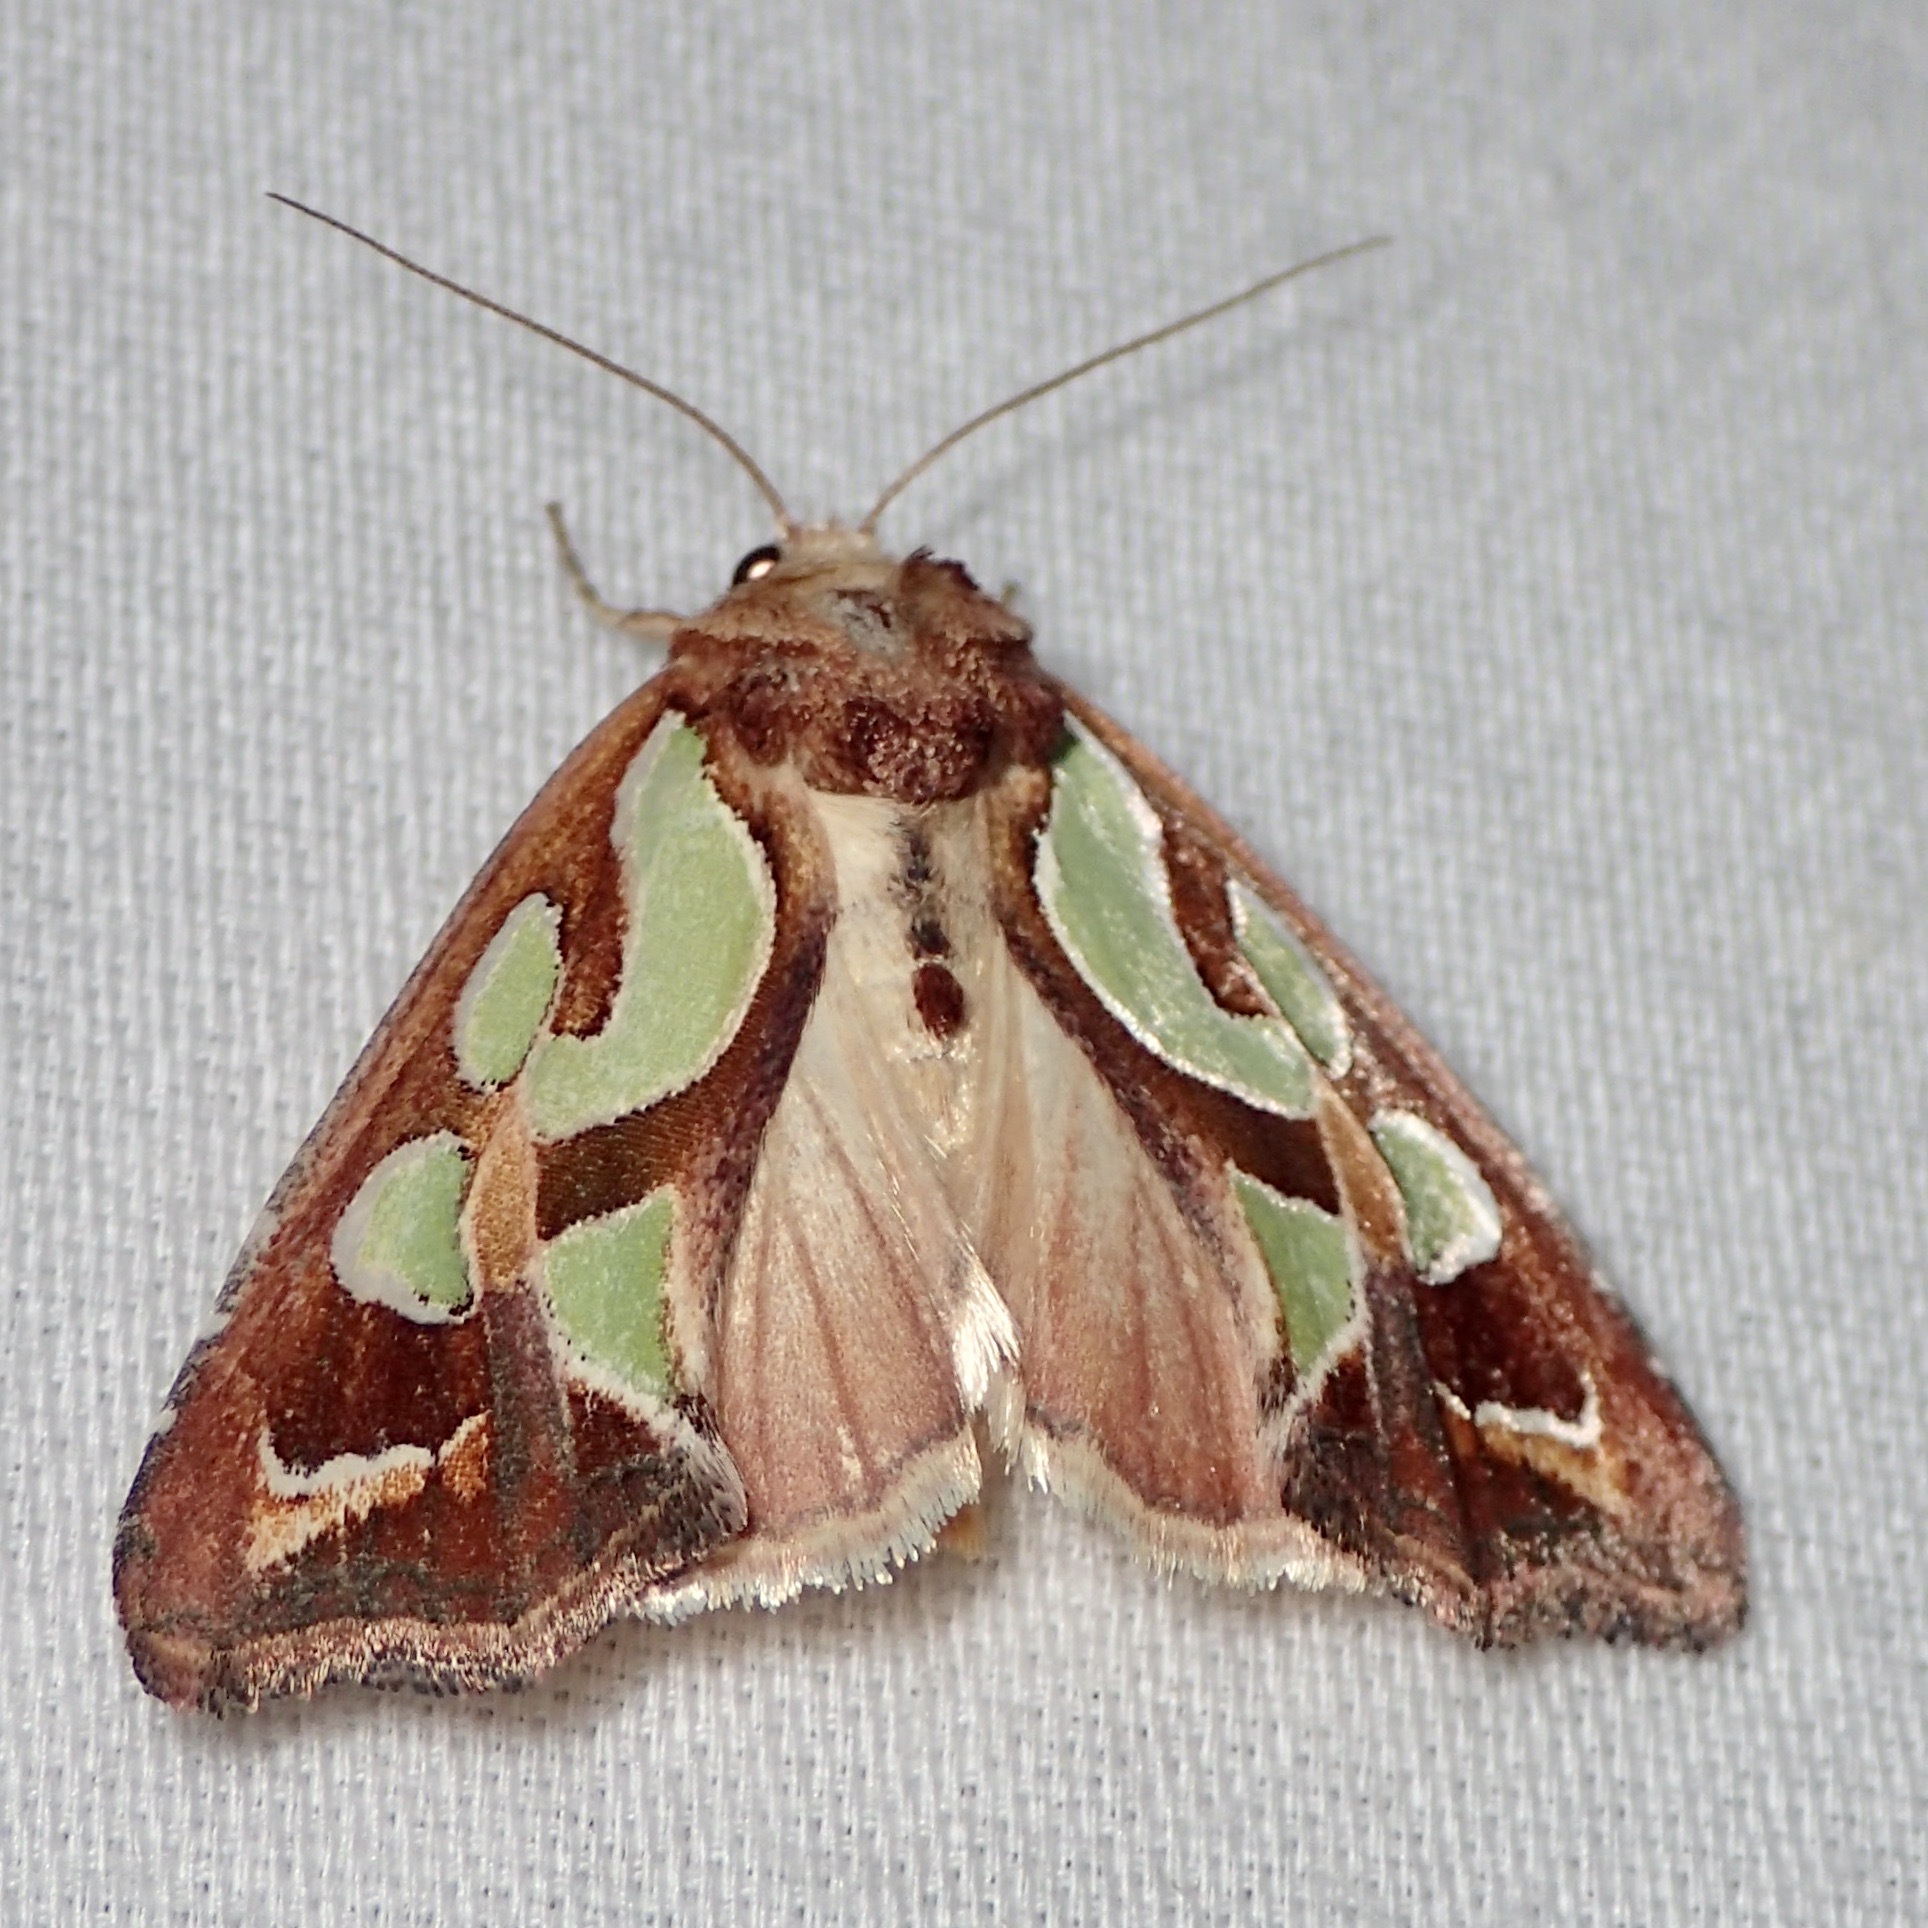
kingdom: Animalia
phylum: Arthropoda
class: Insecta
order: Lepidoptera
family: Noctuidae
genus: Cosmodes
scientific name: Cosmodes elegans
